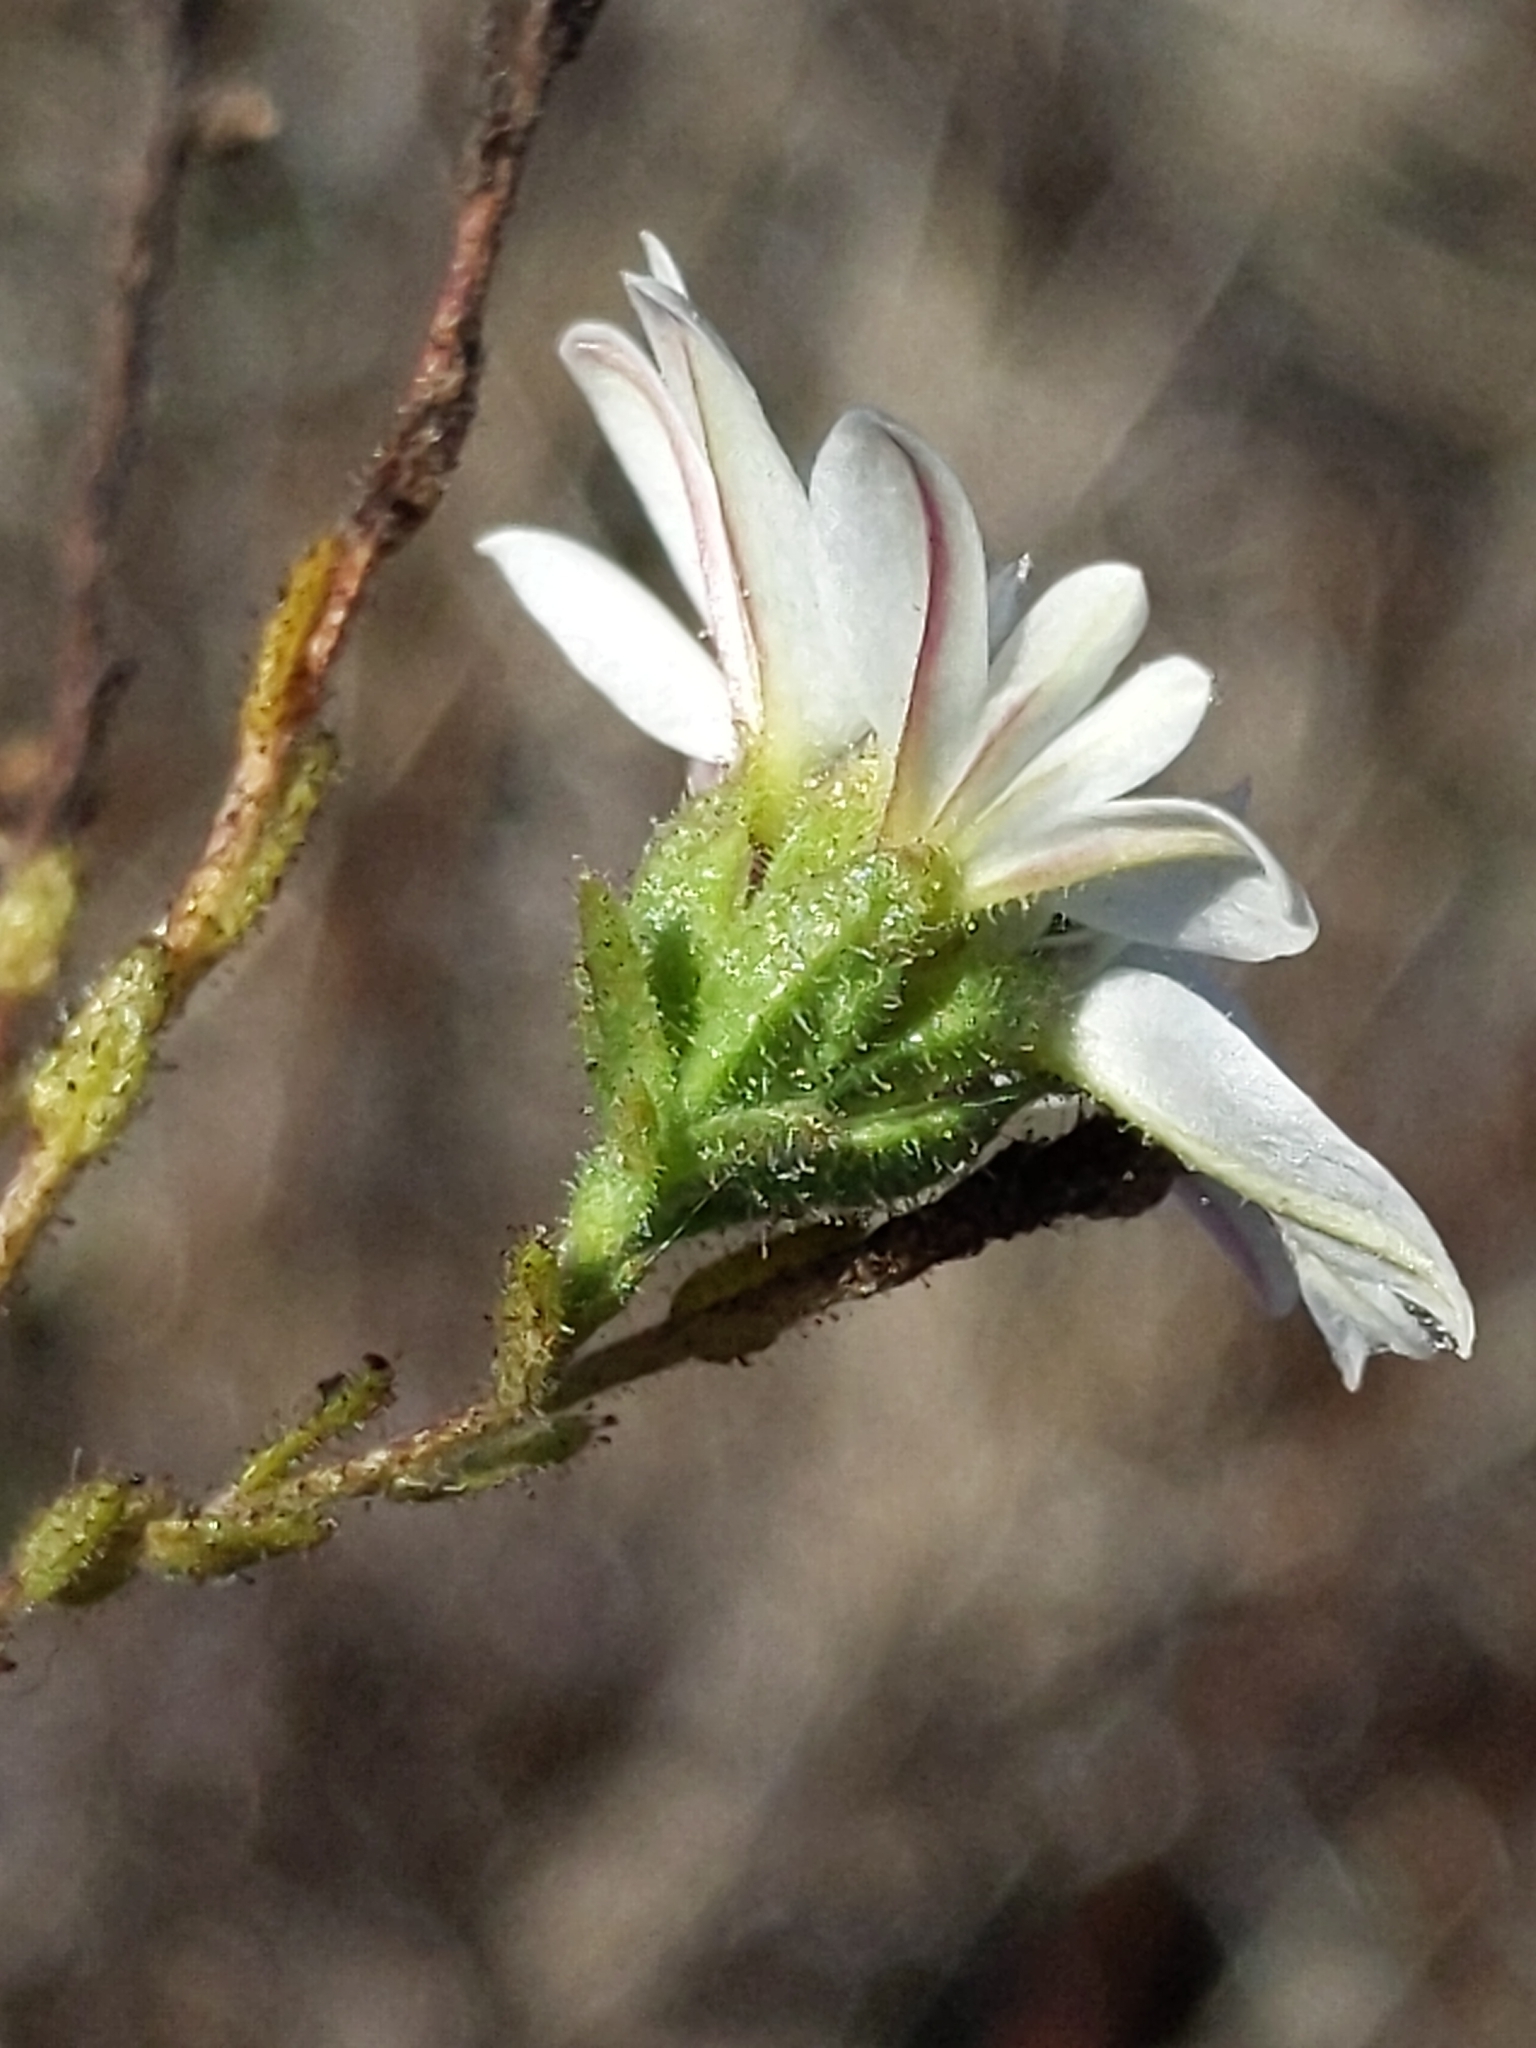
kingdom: Plantae
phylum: Tracheophyta
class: Magnoliopsida
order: Asterales
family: Asteraceae
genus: Hemizonia
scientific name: Hemizonia congesta
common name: Hayfield tarweed
